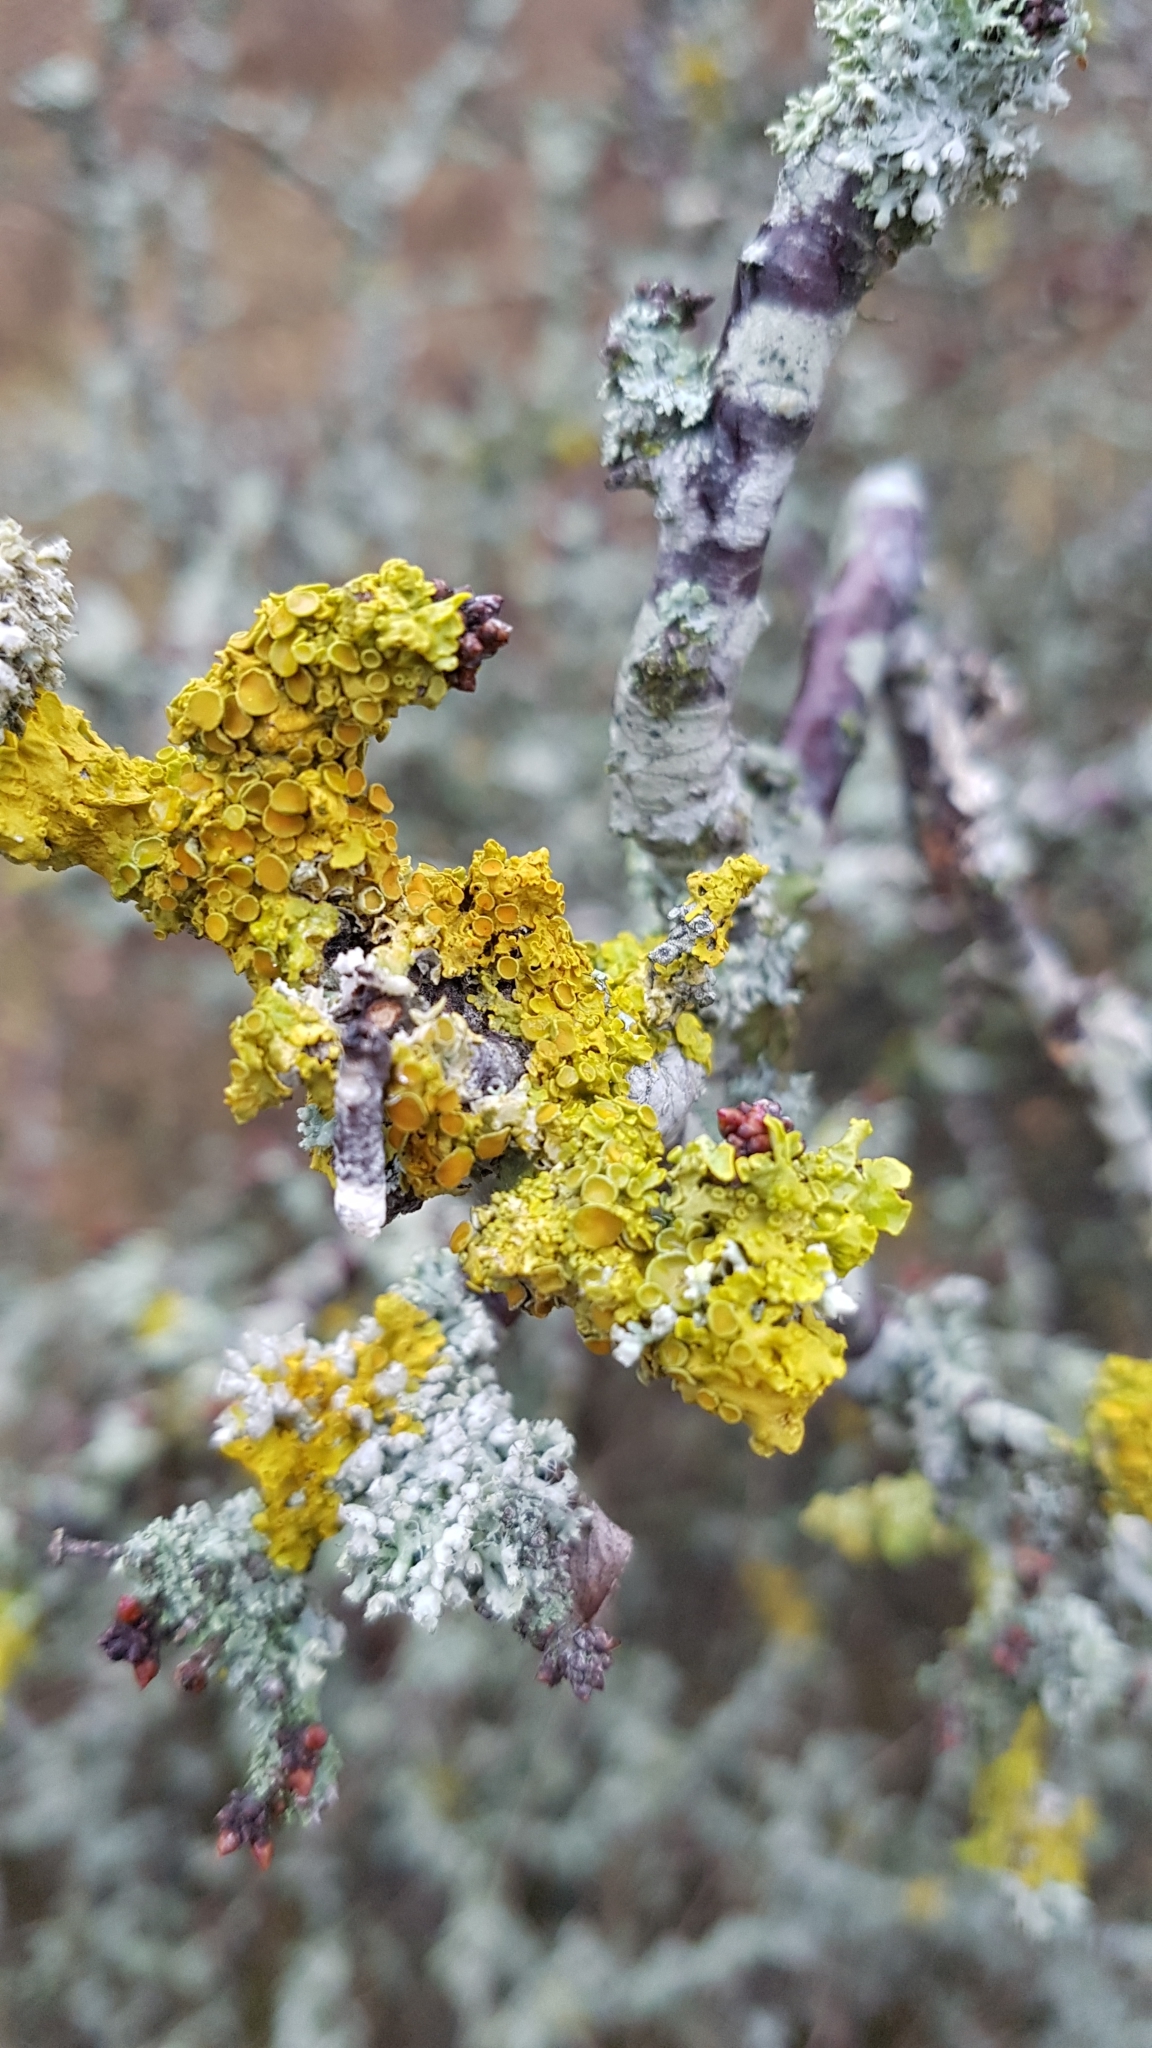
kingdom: Fungi
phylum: Ascomycota
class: Lecanoromycetes
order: Teloschistales
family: Teloschistaceae
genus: Xanthoria
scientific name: Xanthoria parietina
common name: Common orange lichen
